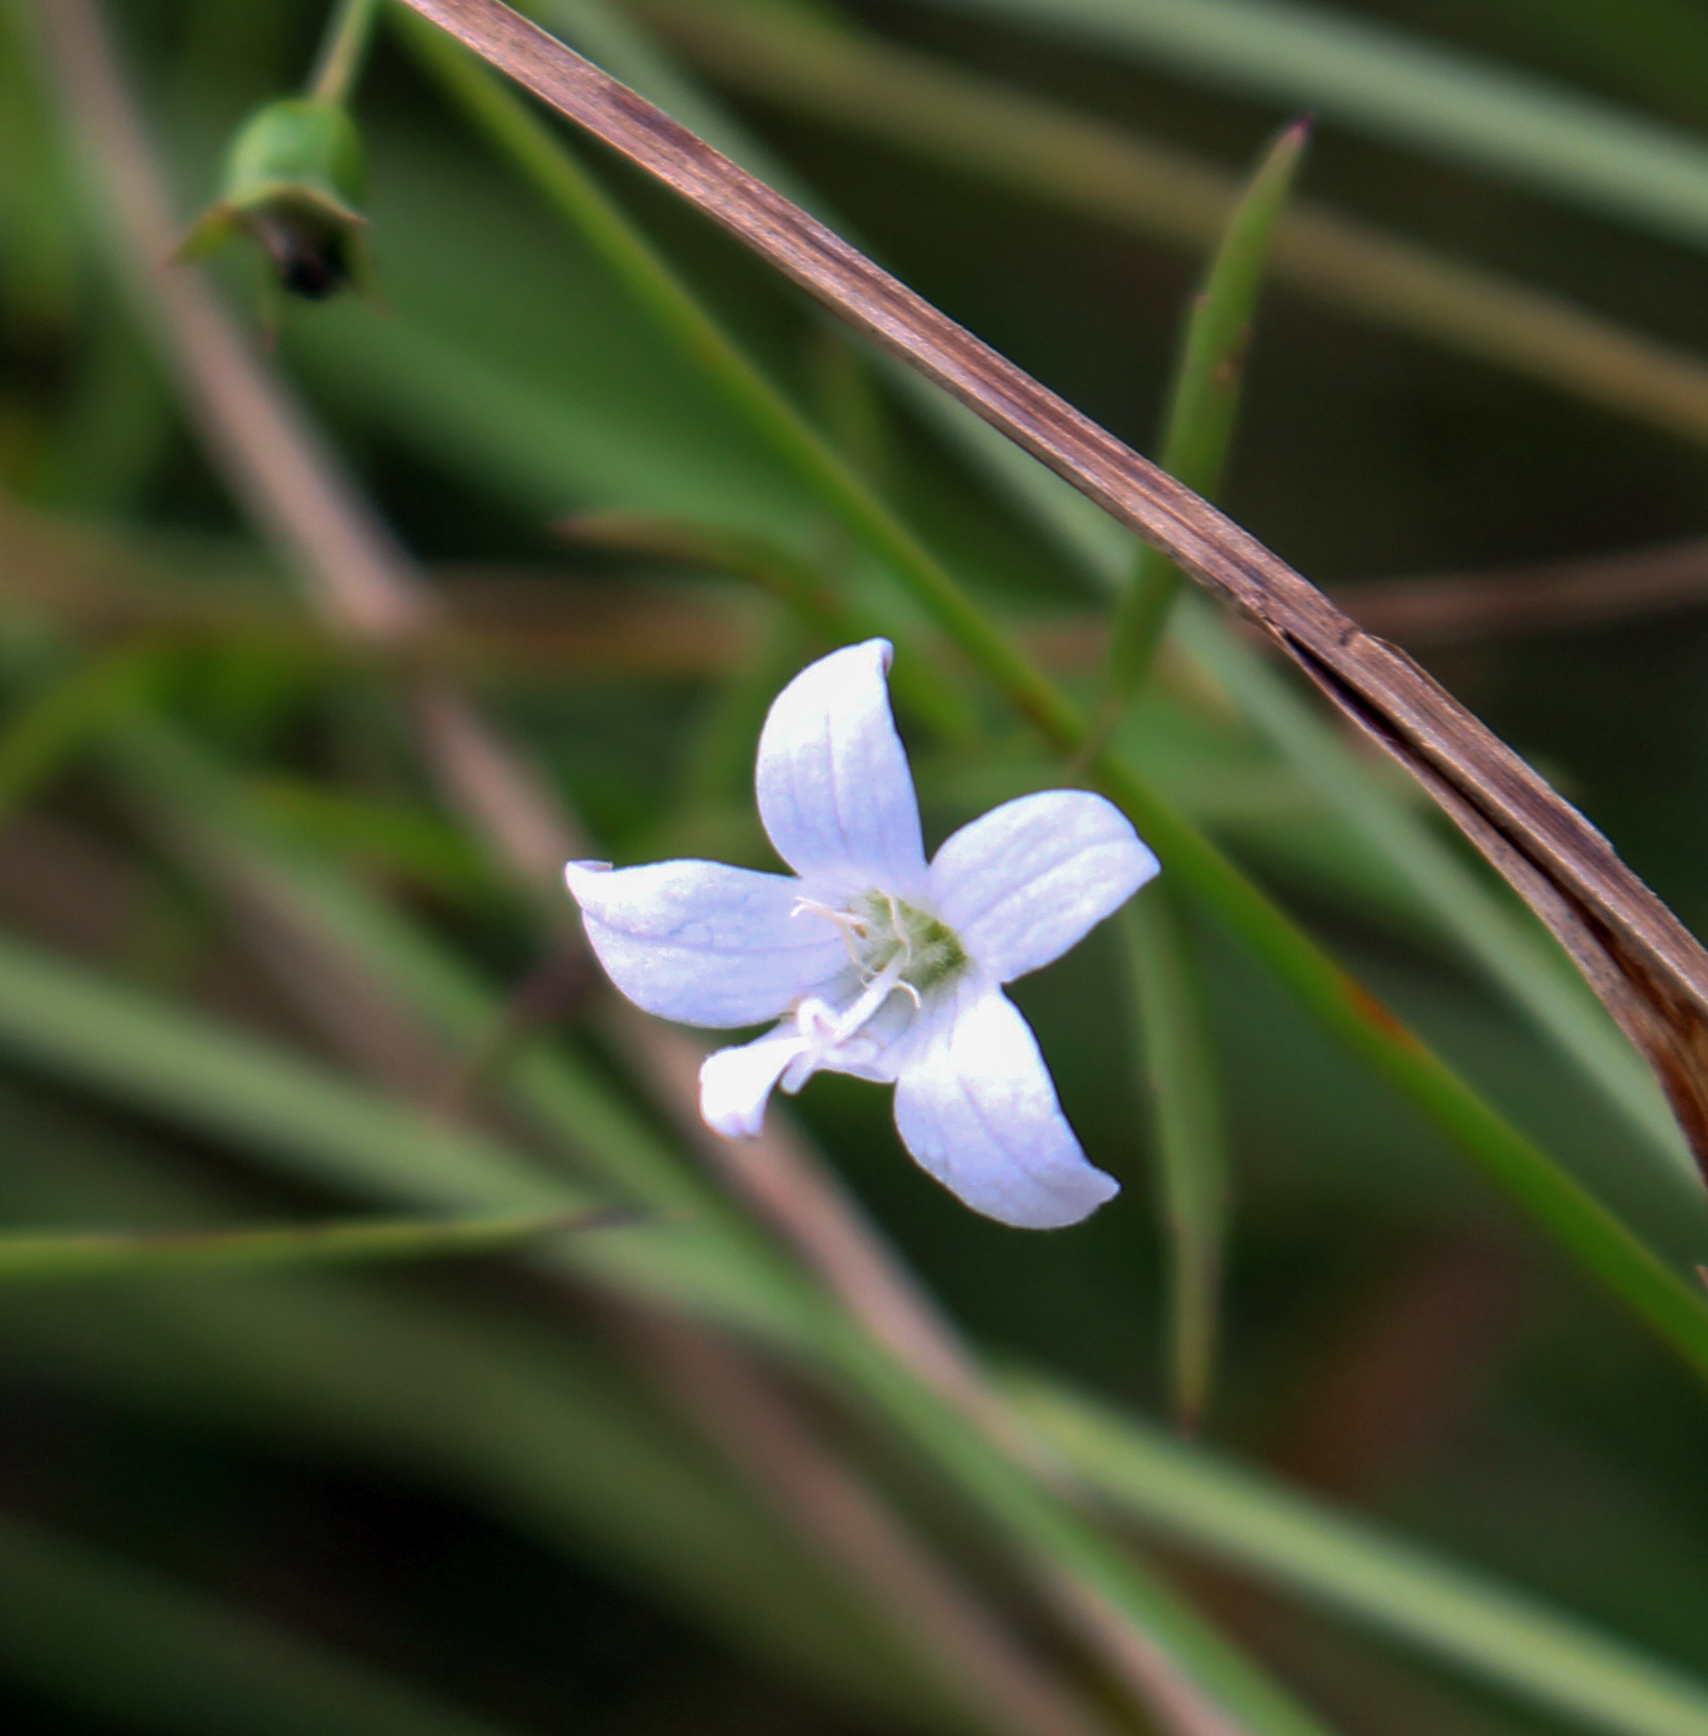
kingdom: Plantae
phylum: Tracheophyta
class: Magnoliopsida
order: Asterales
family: Campanulaceae
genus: Palustricodon
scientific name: Palustricodon aparinoides
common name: Bedstraw bellflower
